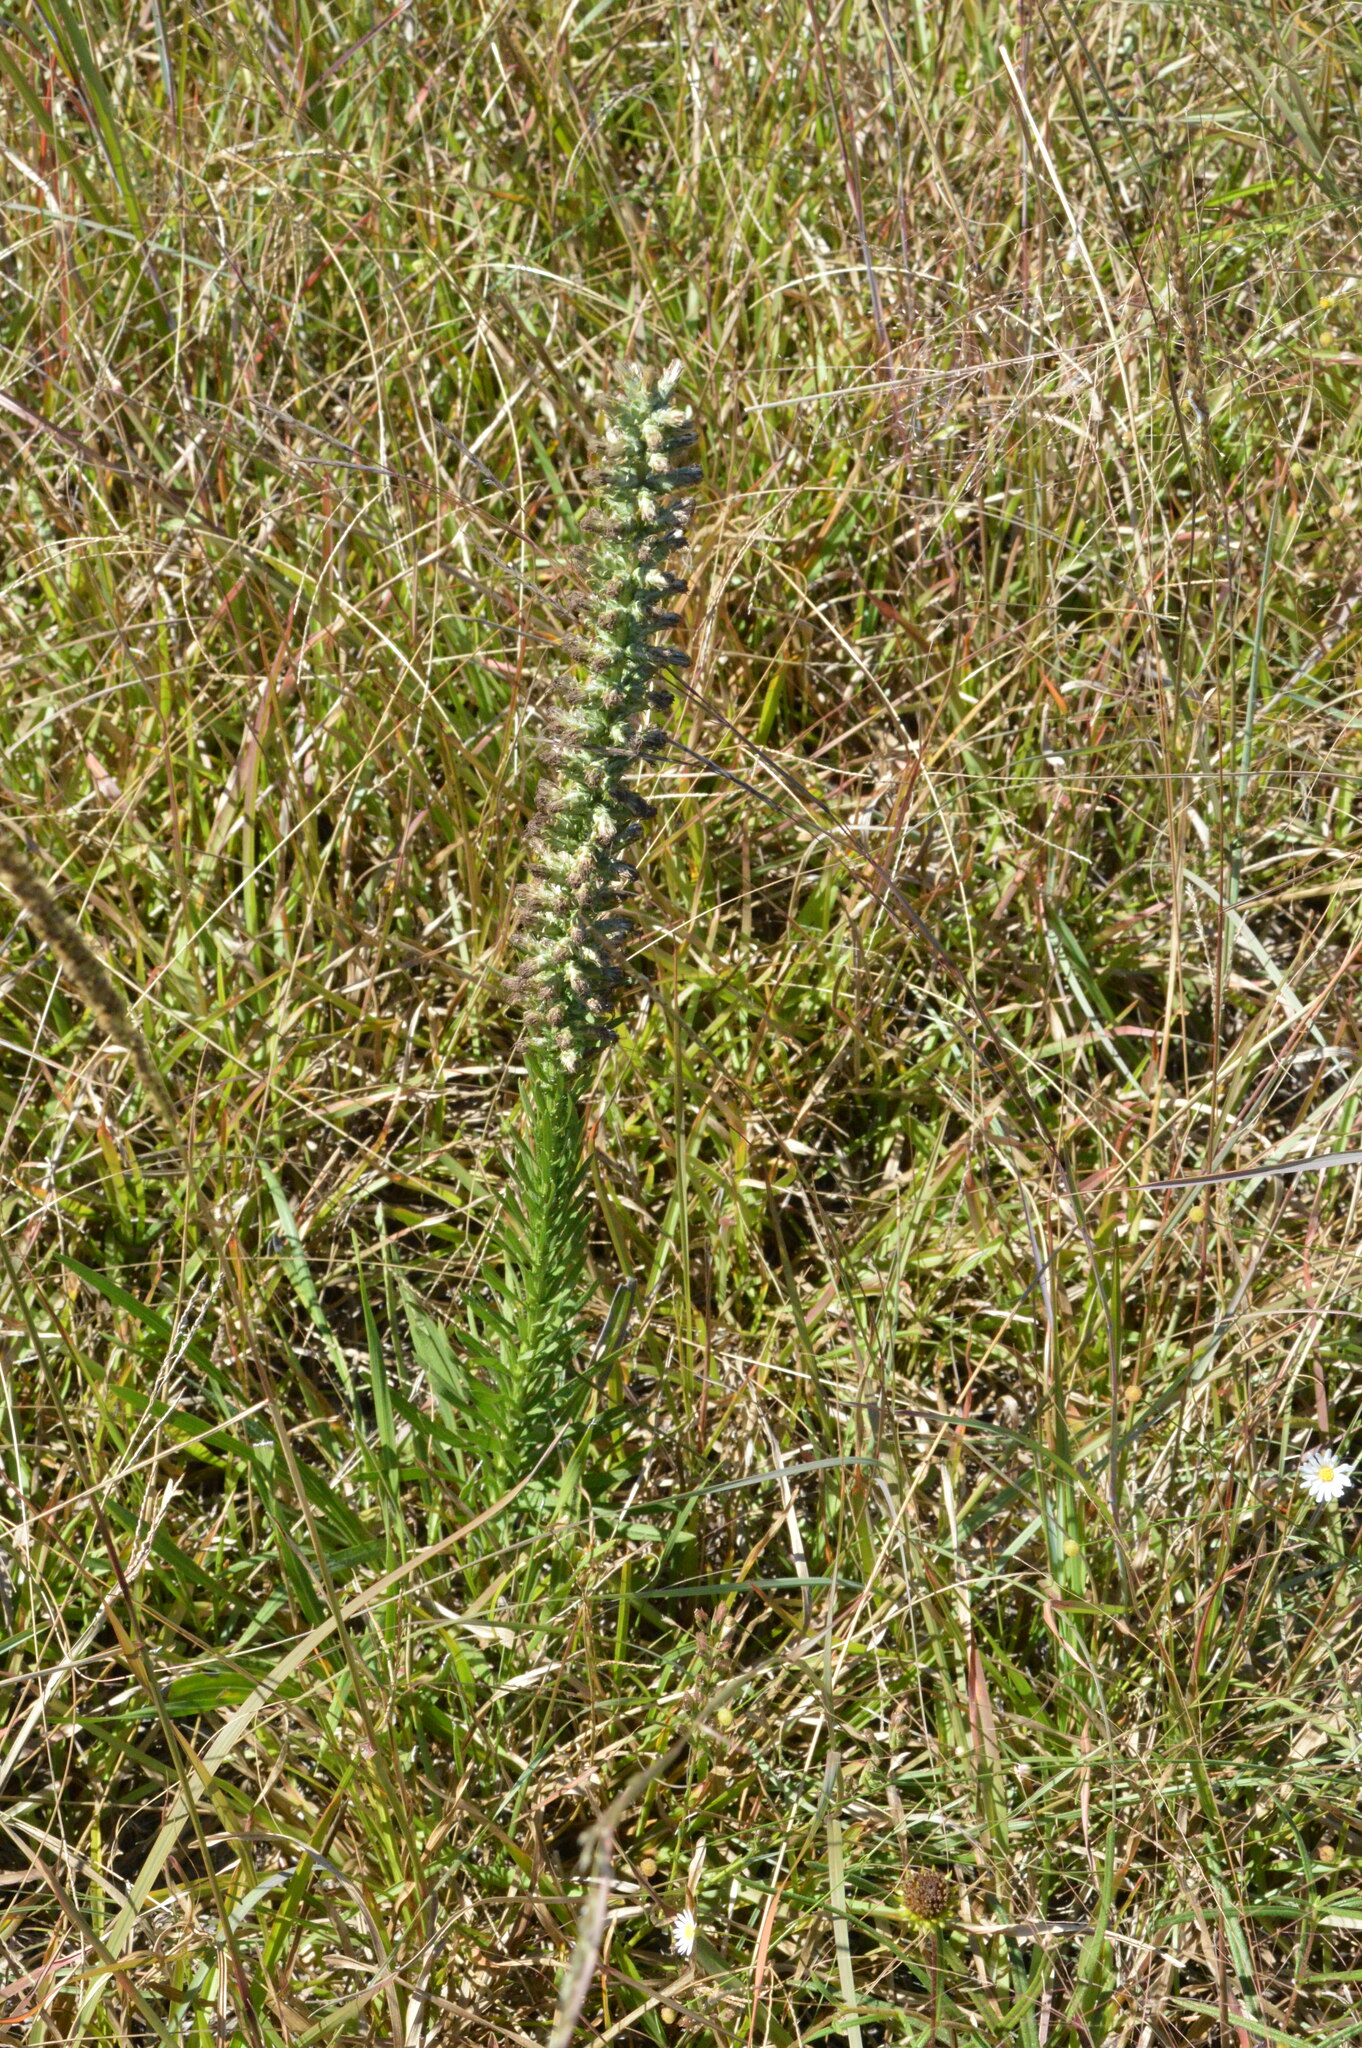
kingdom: Plantae
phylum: Tracheophyta
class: Magnoliopsida
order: Asterales
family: Asteraceae
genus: Liatris
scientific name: Liatris pycnostachya
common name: Cattail gayfeather
